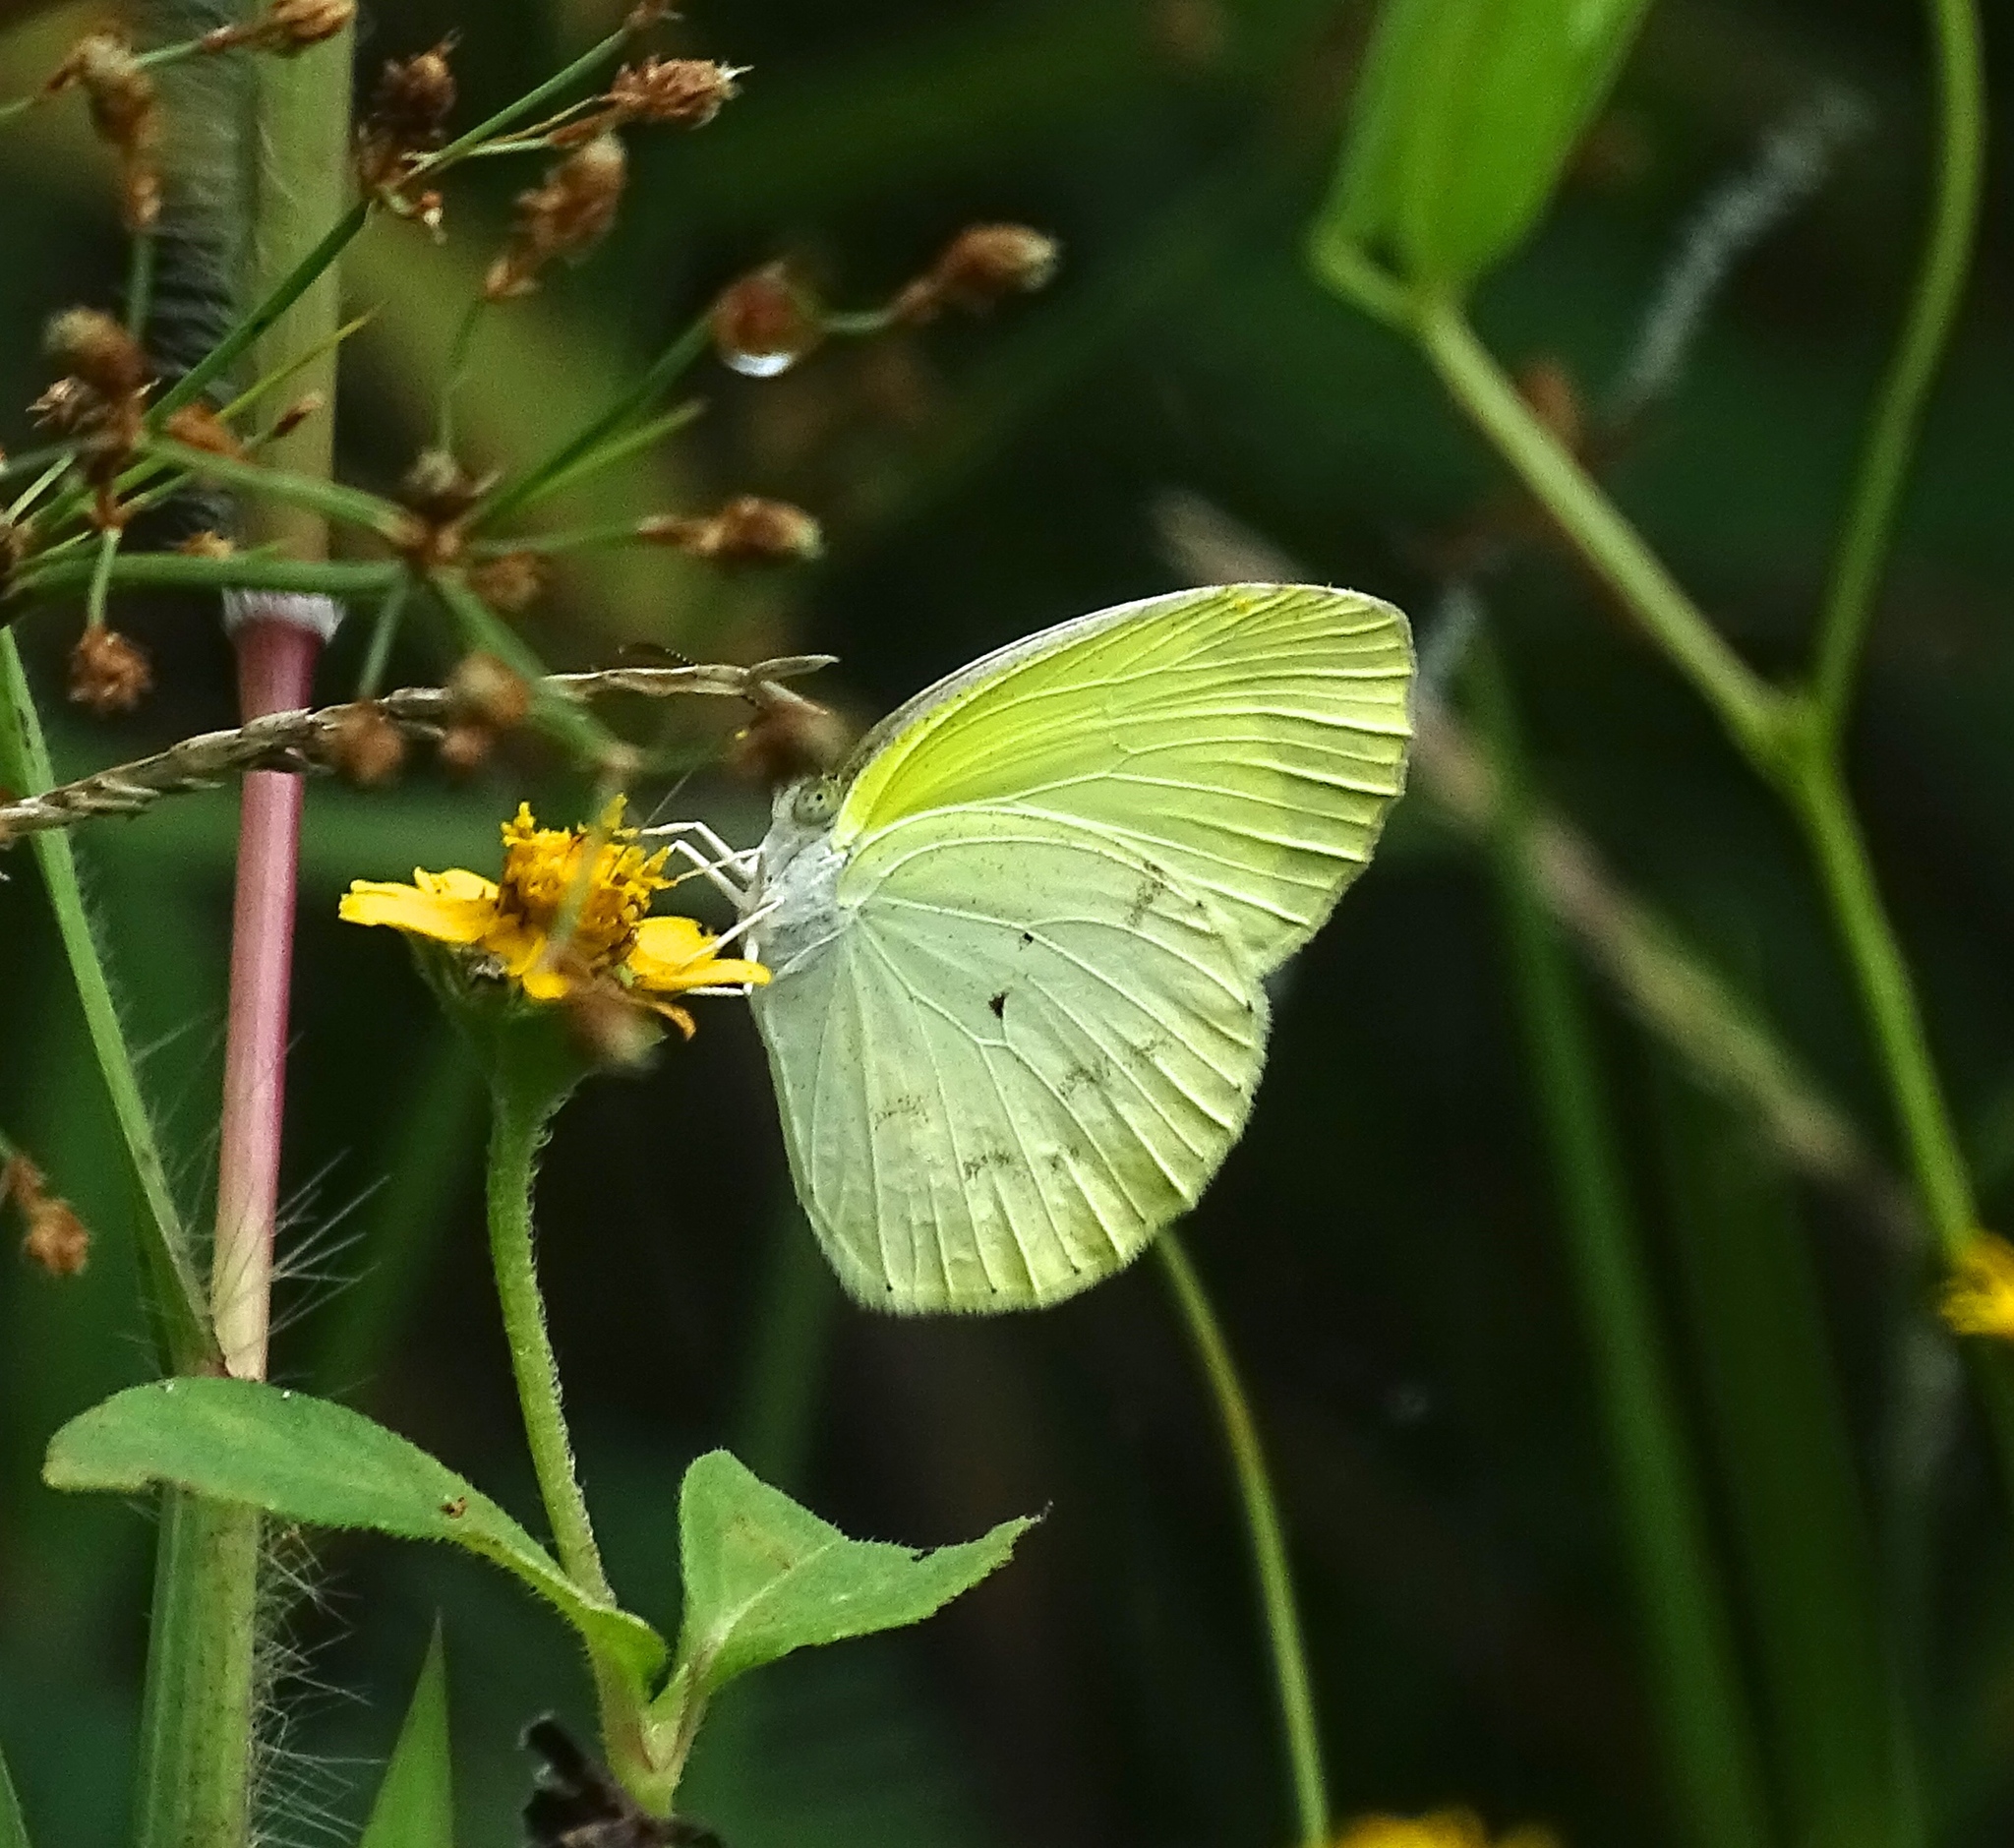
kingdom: Animalia
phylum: Arthropoda
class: Insecta
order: Lepidoptera
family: Pieridae
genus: Eurema
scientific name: Eurema daira
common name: Barred sulphur
